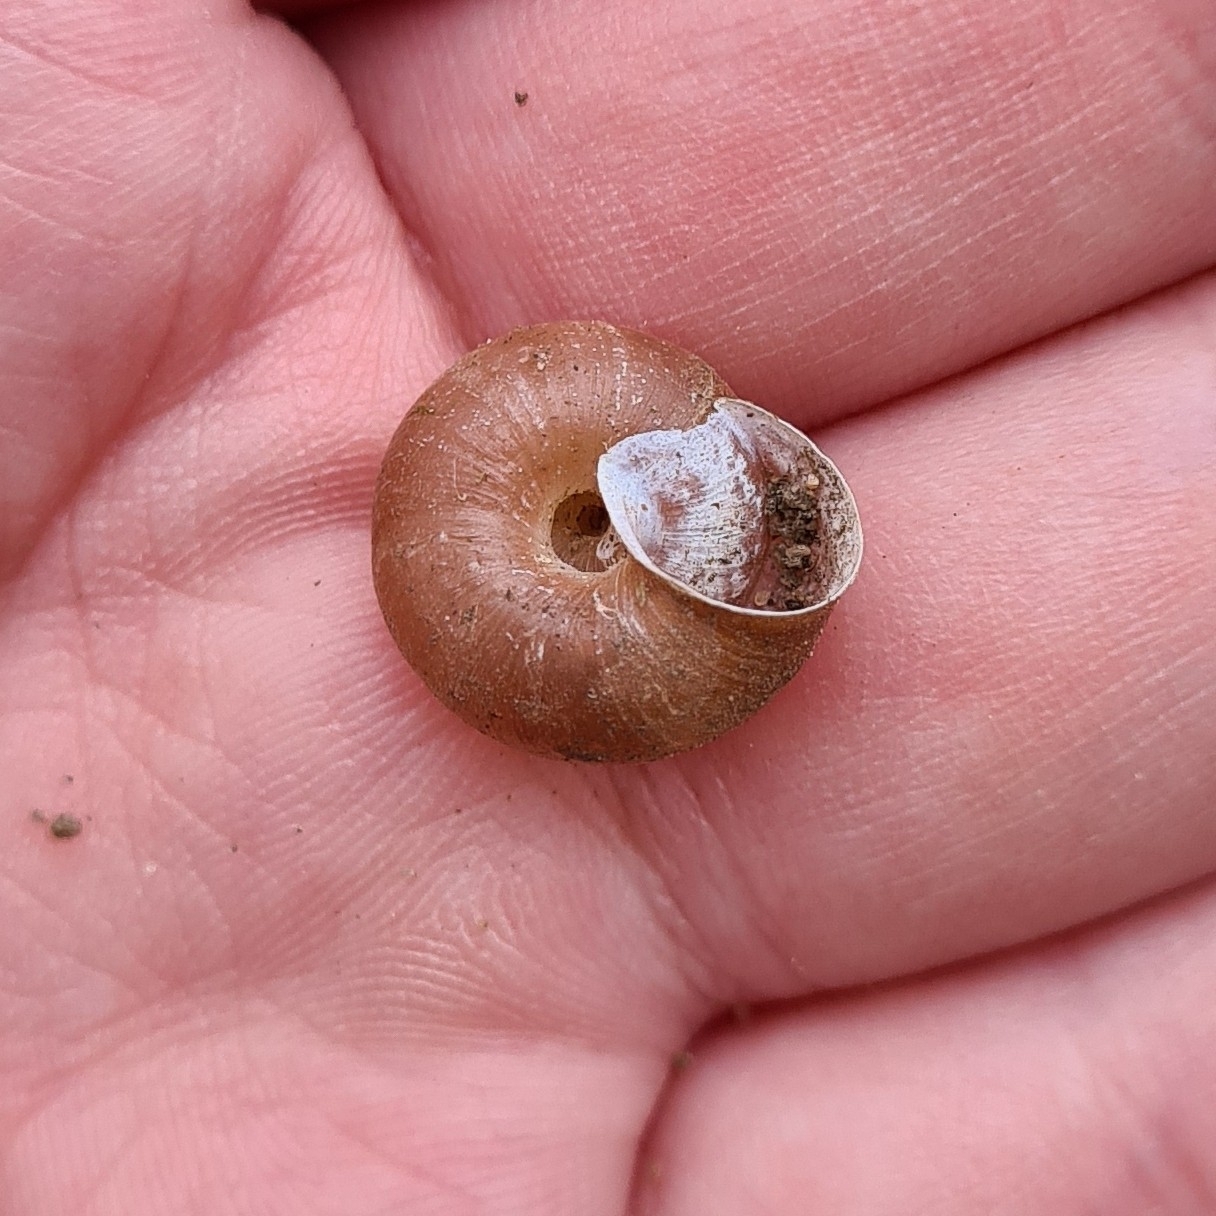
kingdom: Animalia
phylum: Mollusca
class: Gastropoda
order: Stylommatophora
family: Hygromiidae
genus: Euomphalia
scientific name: Euomphalia strigella
